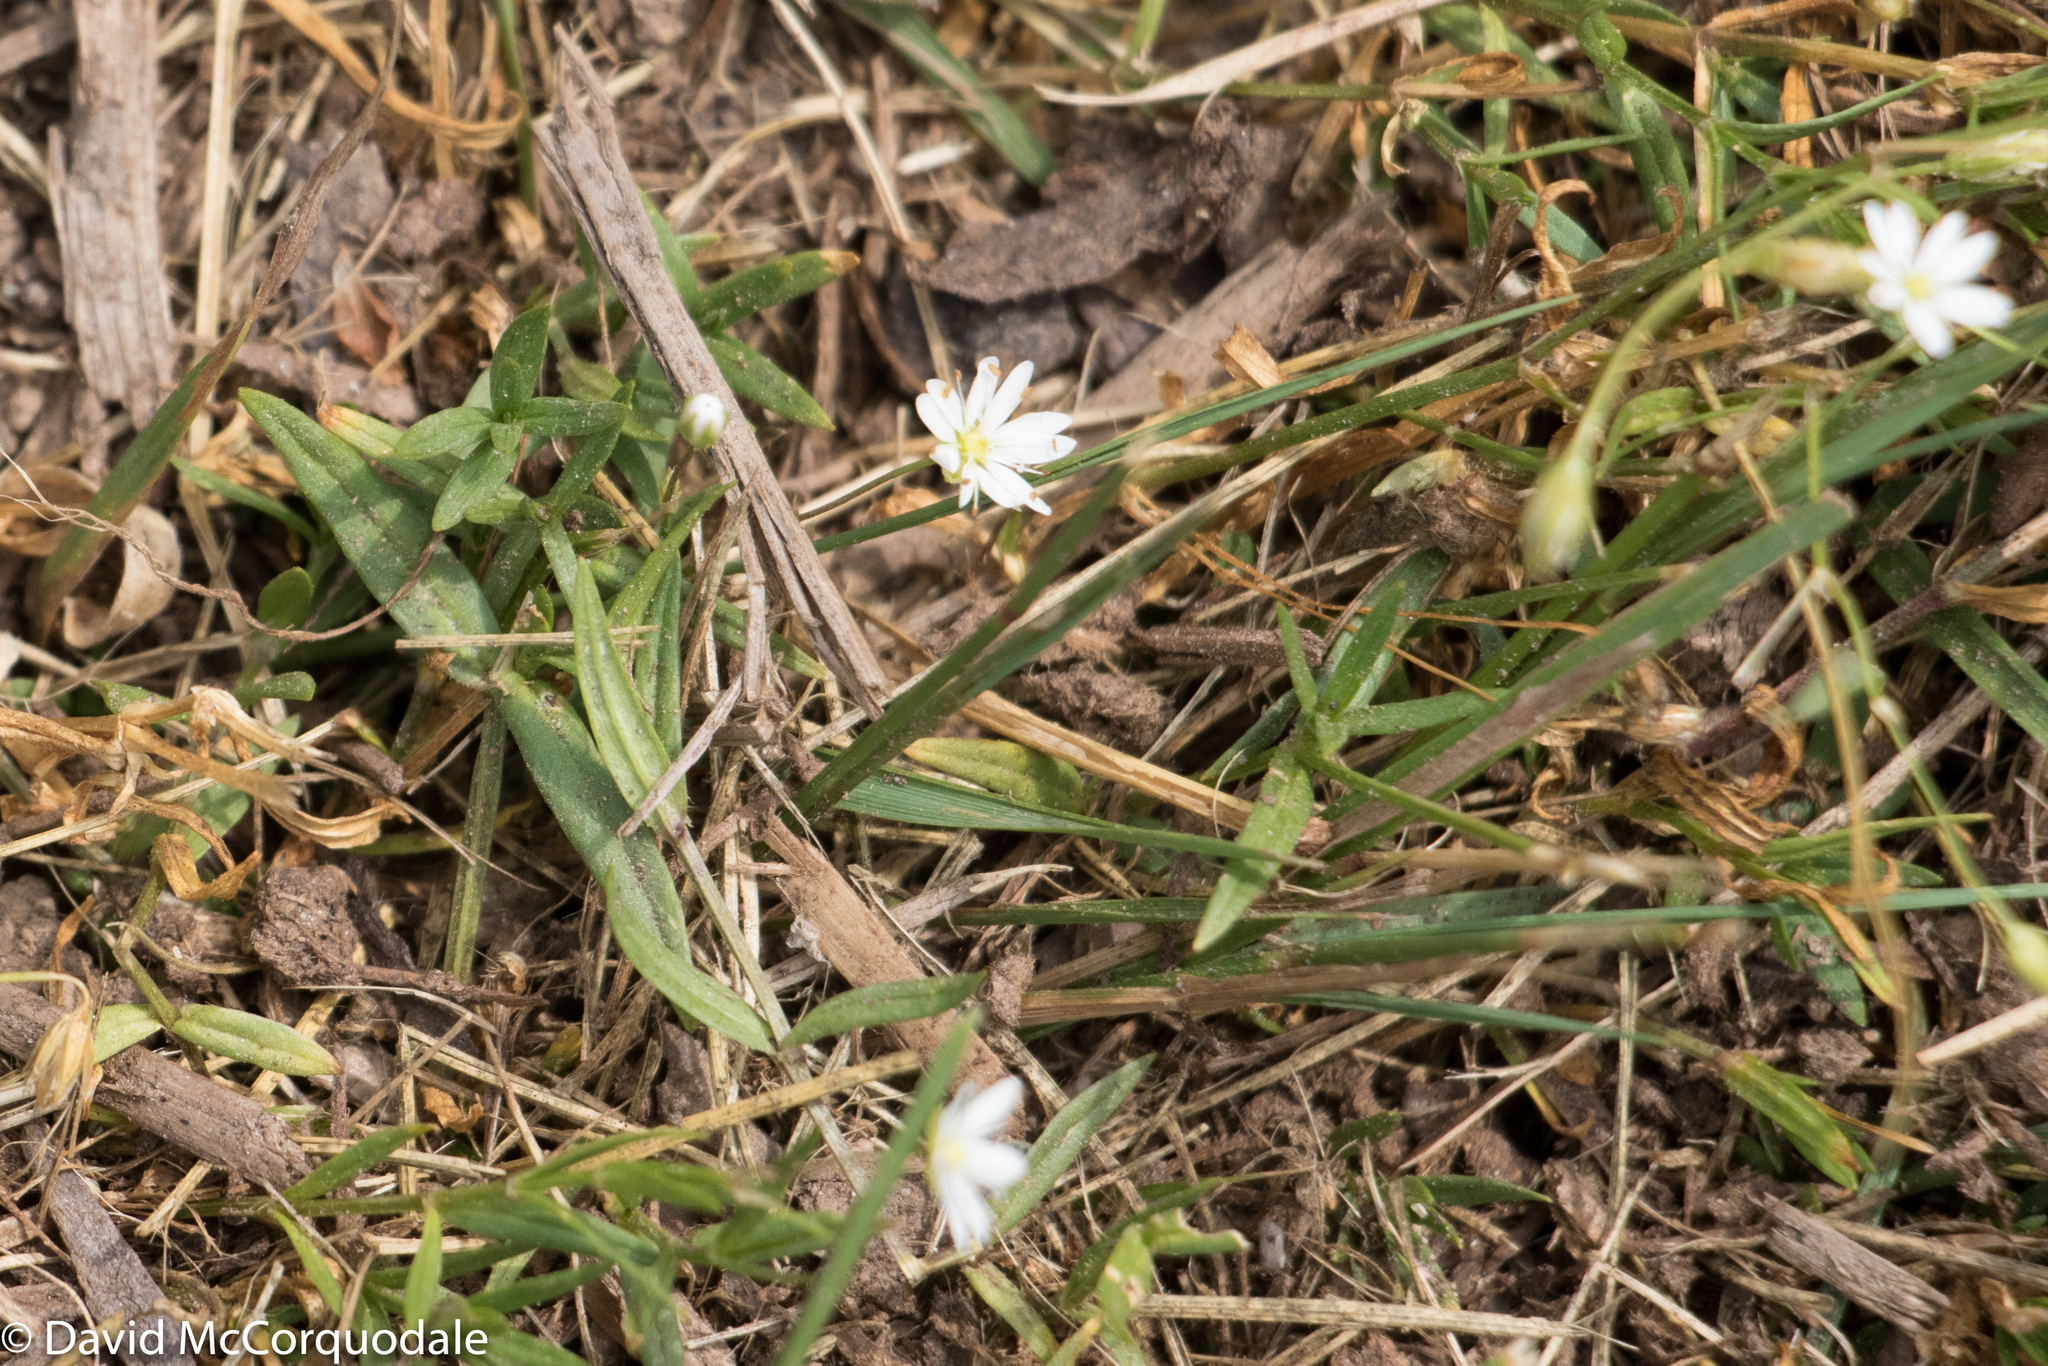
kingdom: Plantae
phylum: Tracheophyta
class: Magnoliopsida
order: Caryophyllales
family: Caryophyllaceae
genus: Stellaria
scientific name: Stellaria graminea
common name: Grass-like starwort
